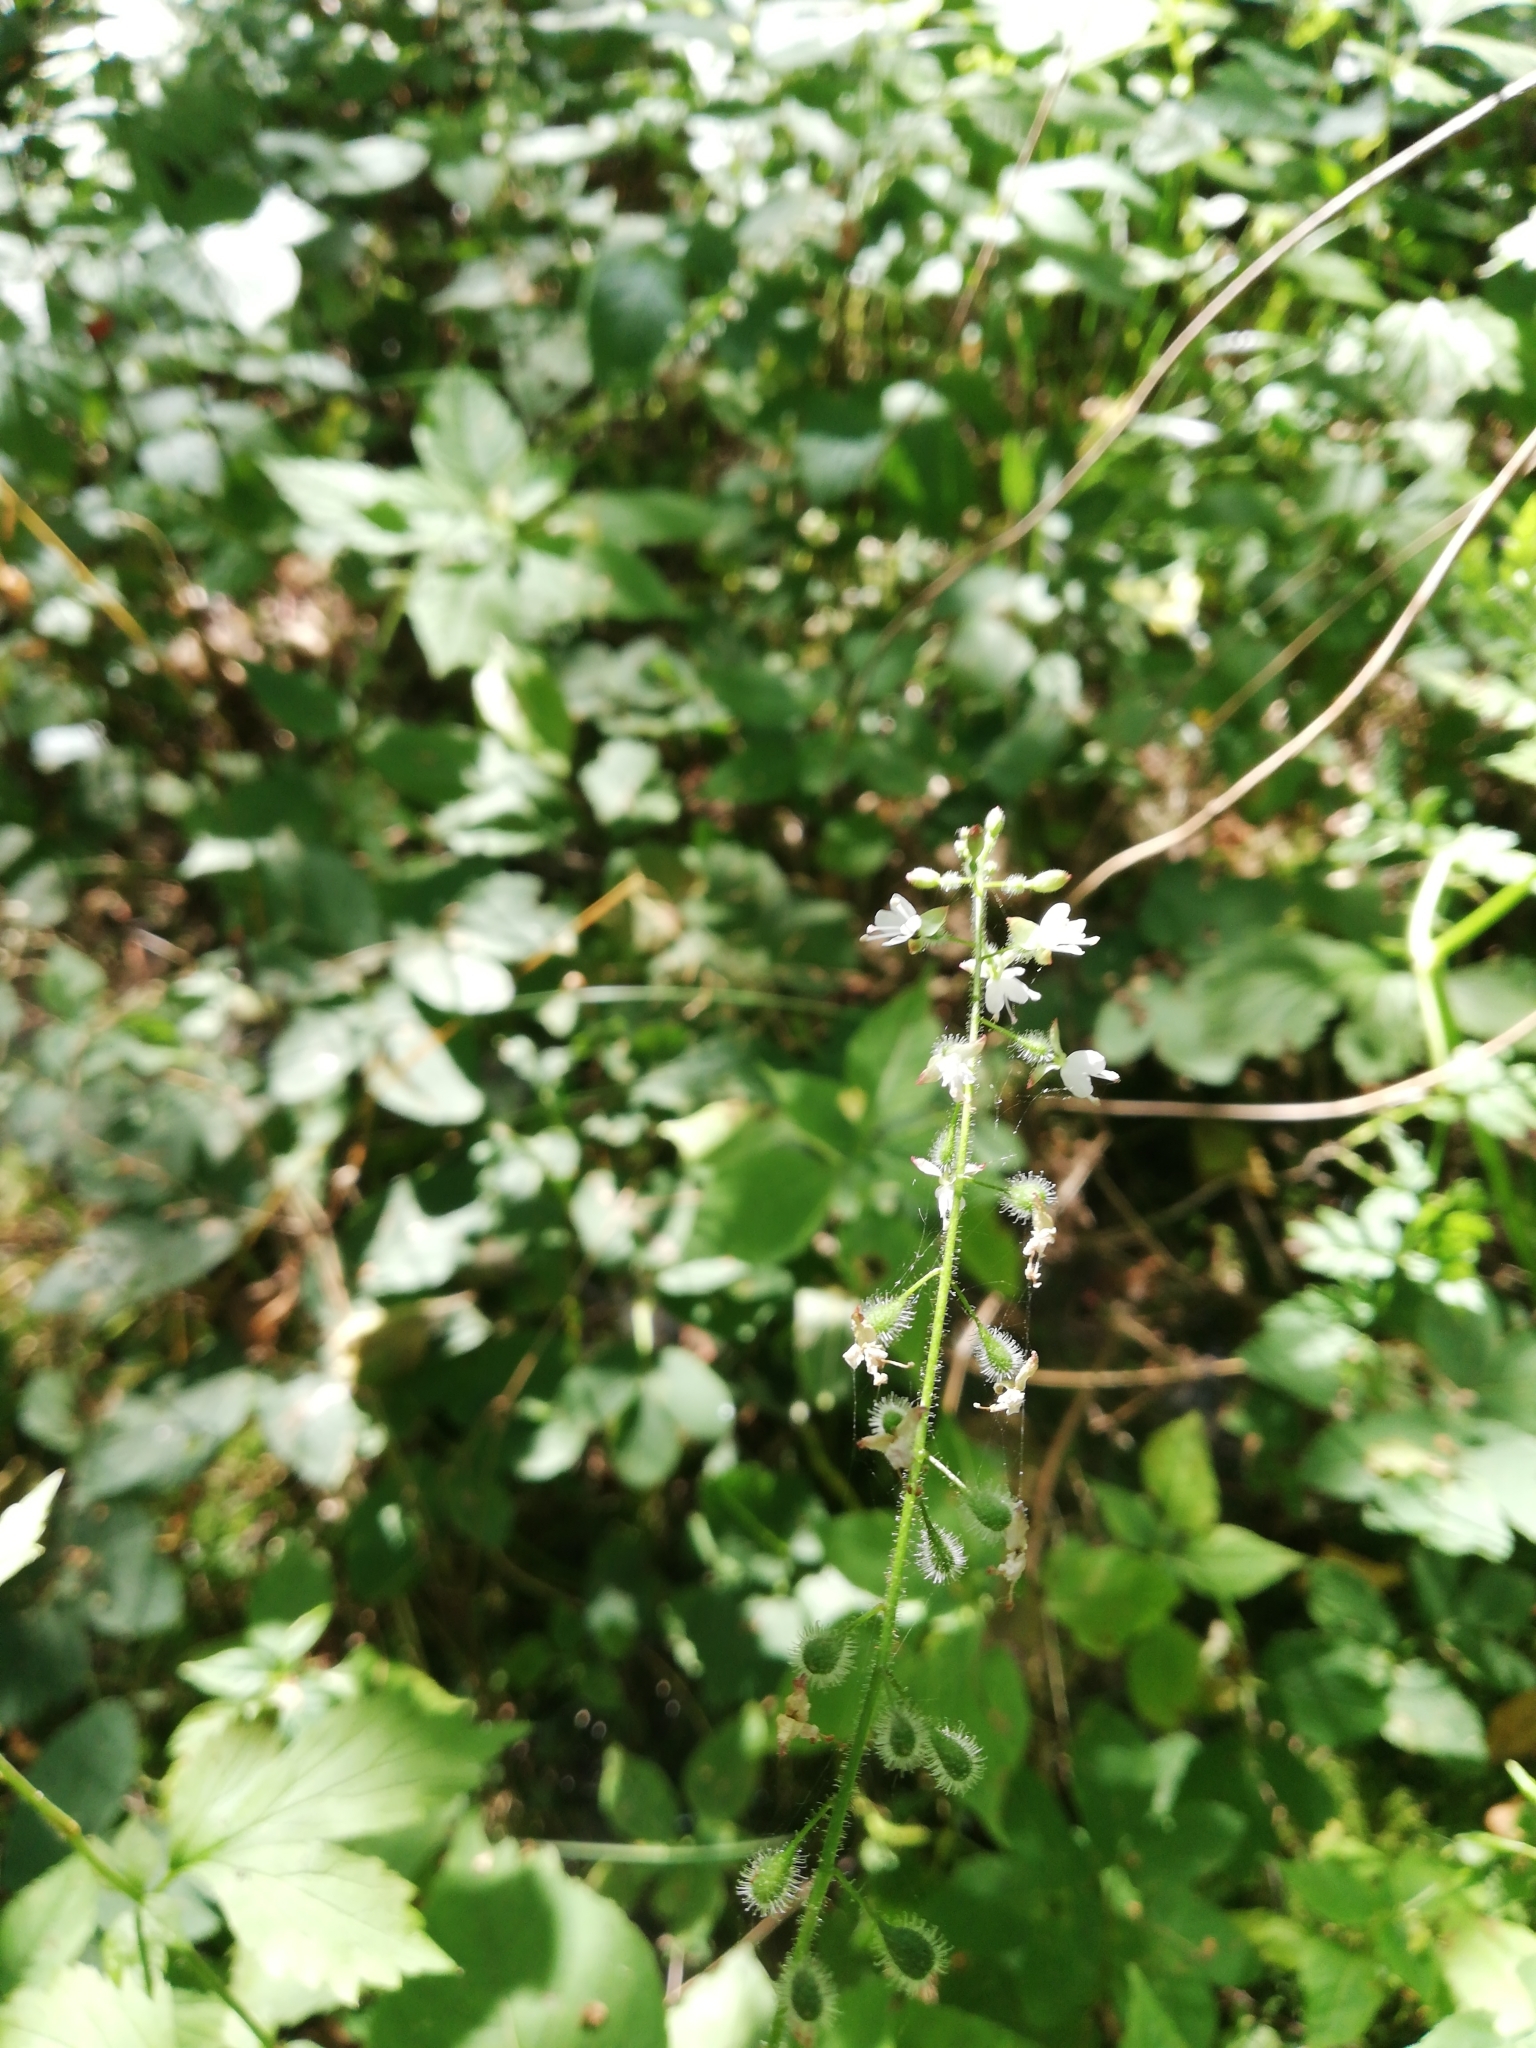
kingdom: Plantae
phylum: Tracheophyta
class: Magnoliopsida
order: Myrtales
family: Onagraceae
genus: Circaea
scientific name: Circaea lutetiana
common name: Enchanter's-nightshade
